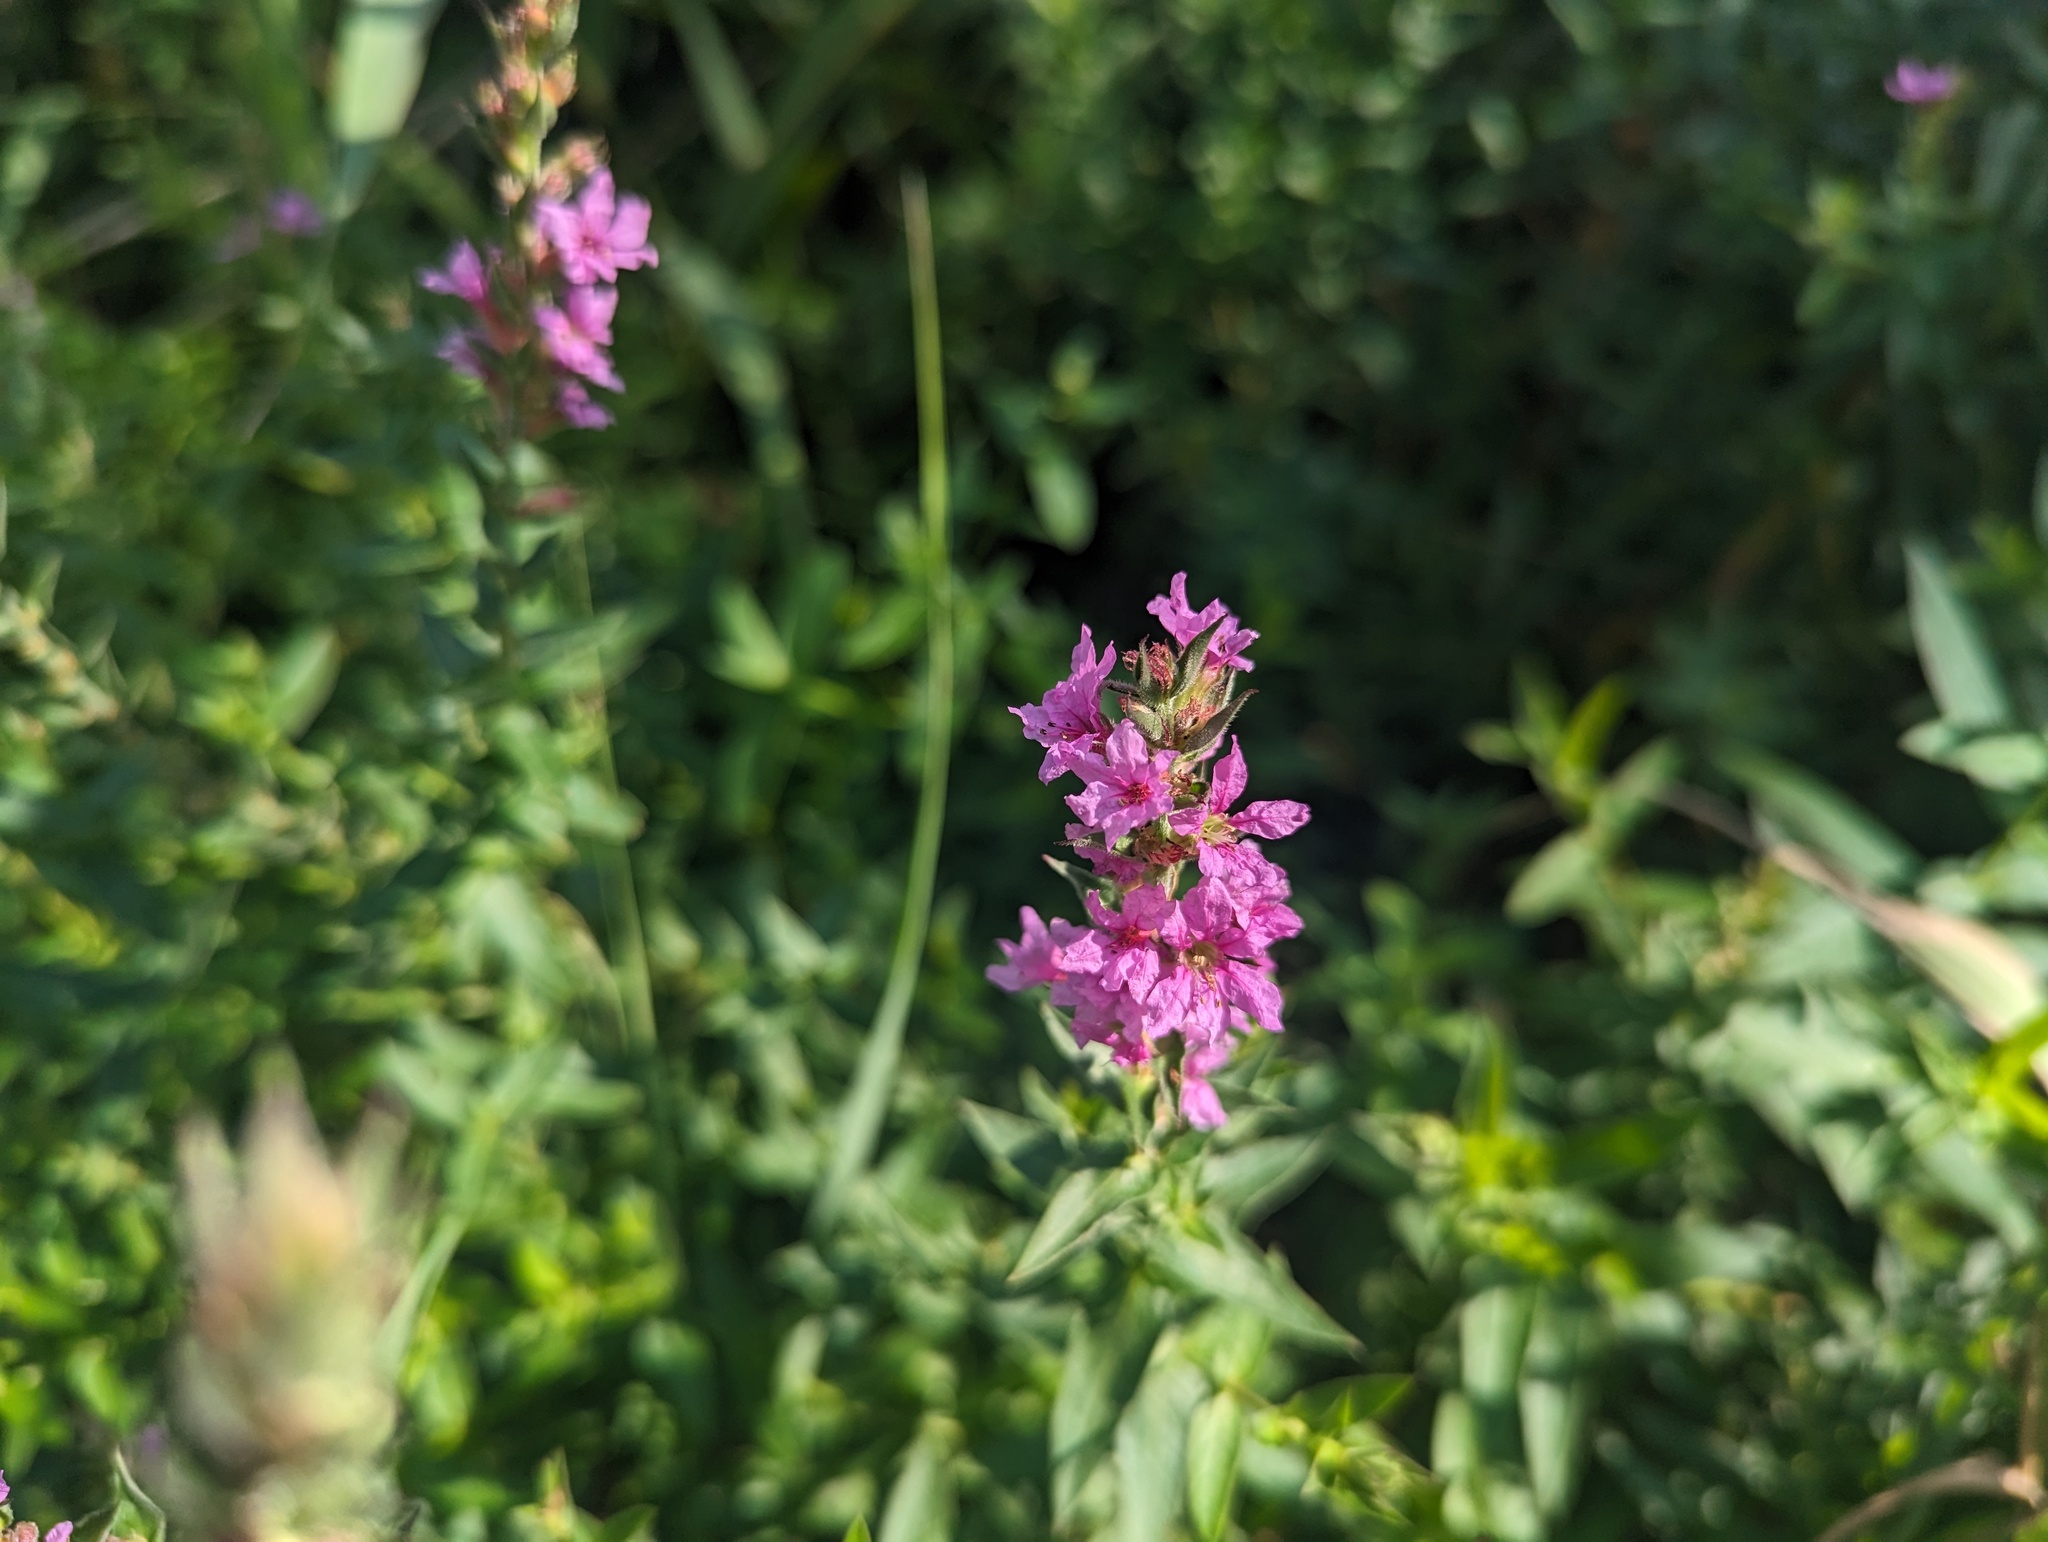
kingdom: Plantae
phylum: Tracheophyta
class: Magnoliopsida
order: Myrtales
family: Lythraceae
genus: Lythrum
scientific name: Lythrum salicaria
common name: Purple loosestrife
